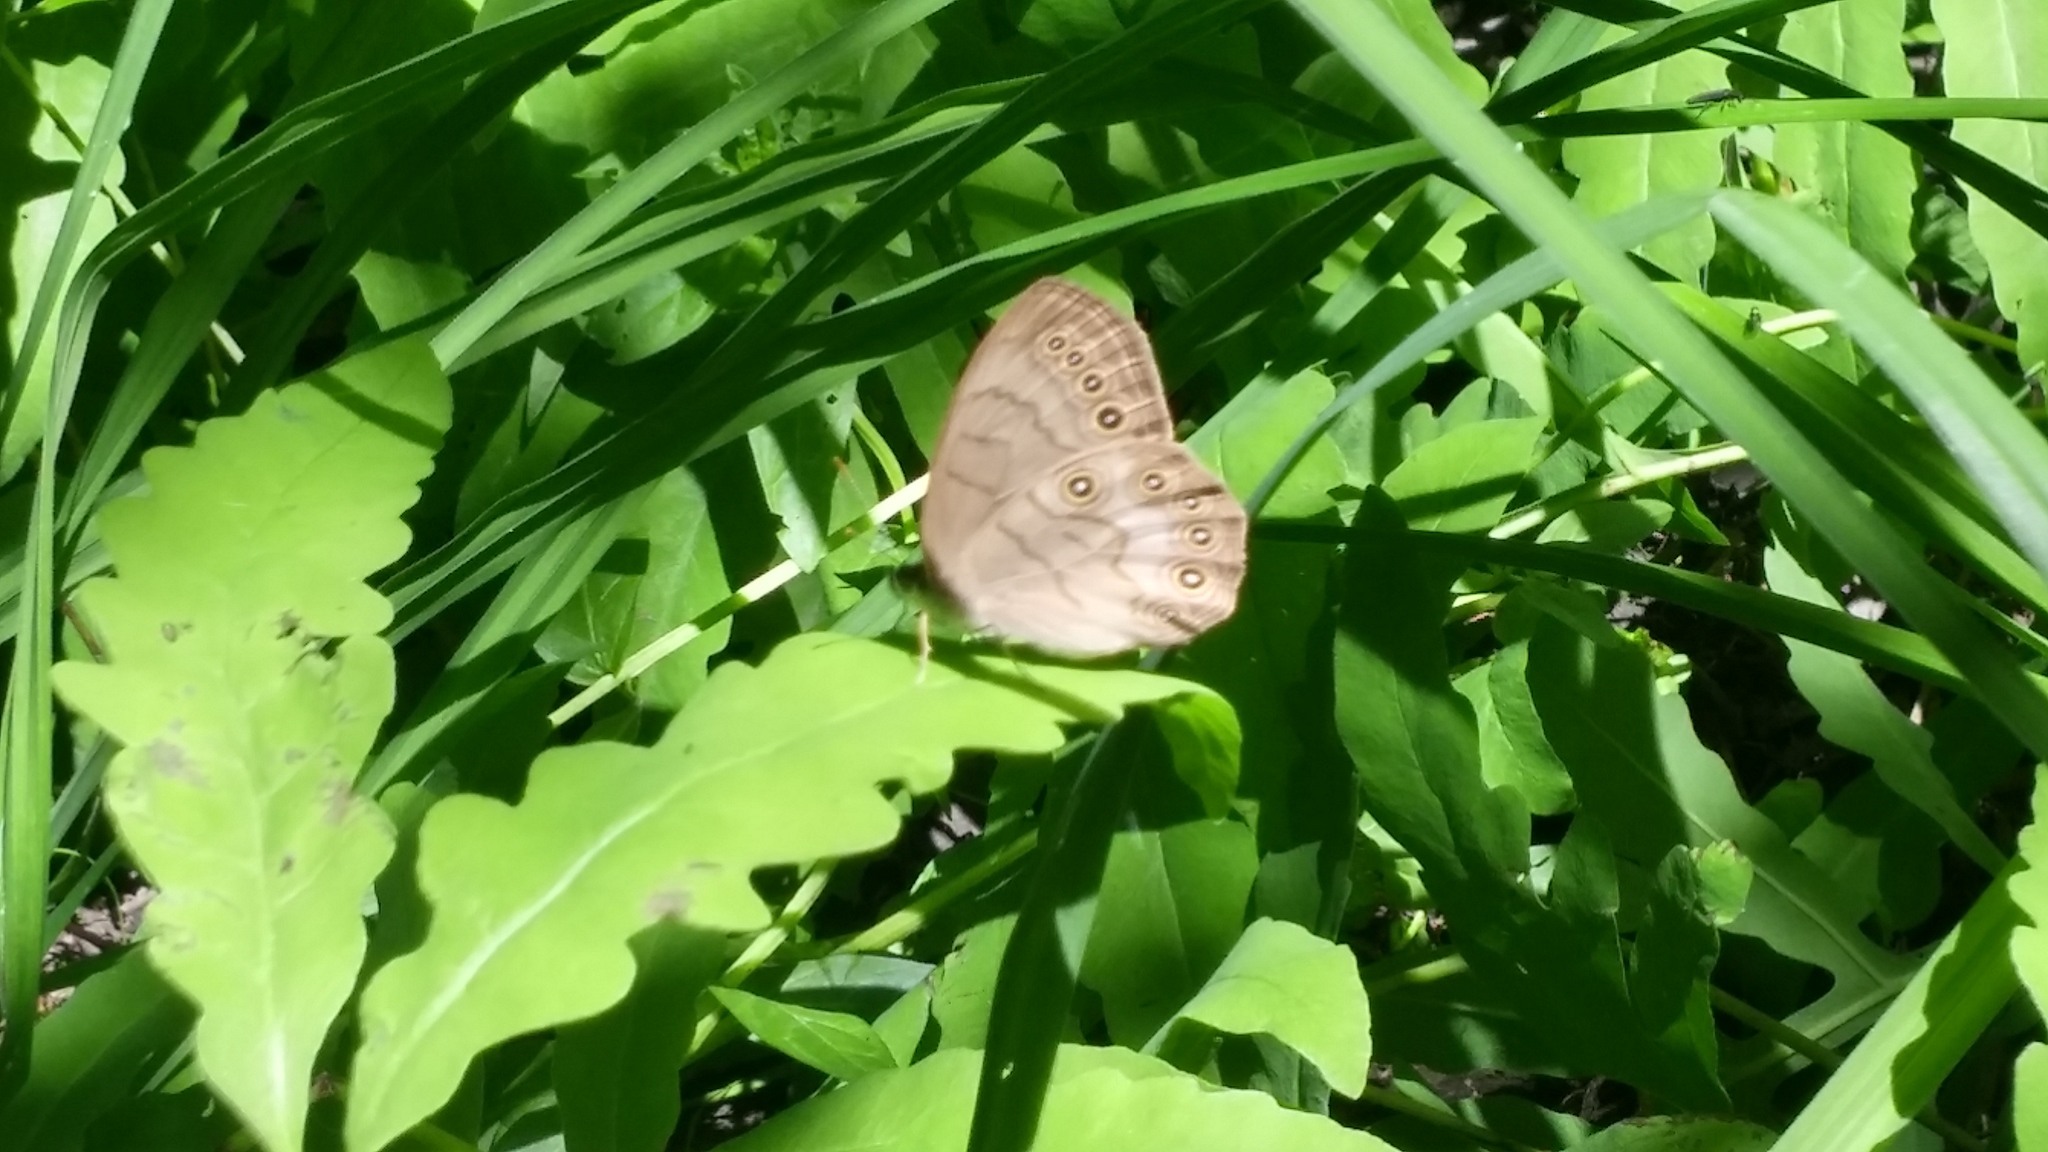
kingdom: Animalia
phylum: Arthropoda
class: Insecta
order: Lepidoptera
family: Nymphalidae
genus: Lethe
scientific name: Lethe eurydice
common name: Eyed brown
